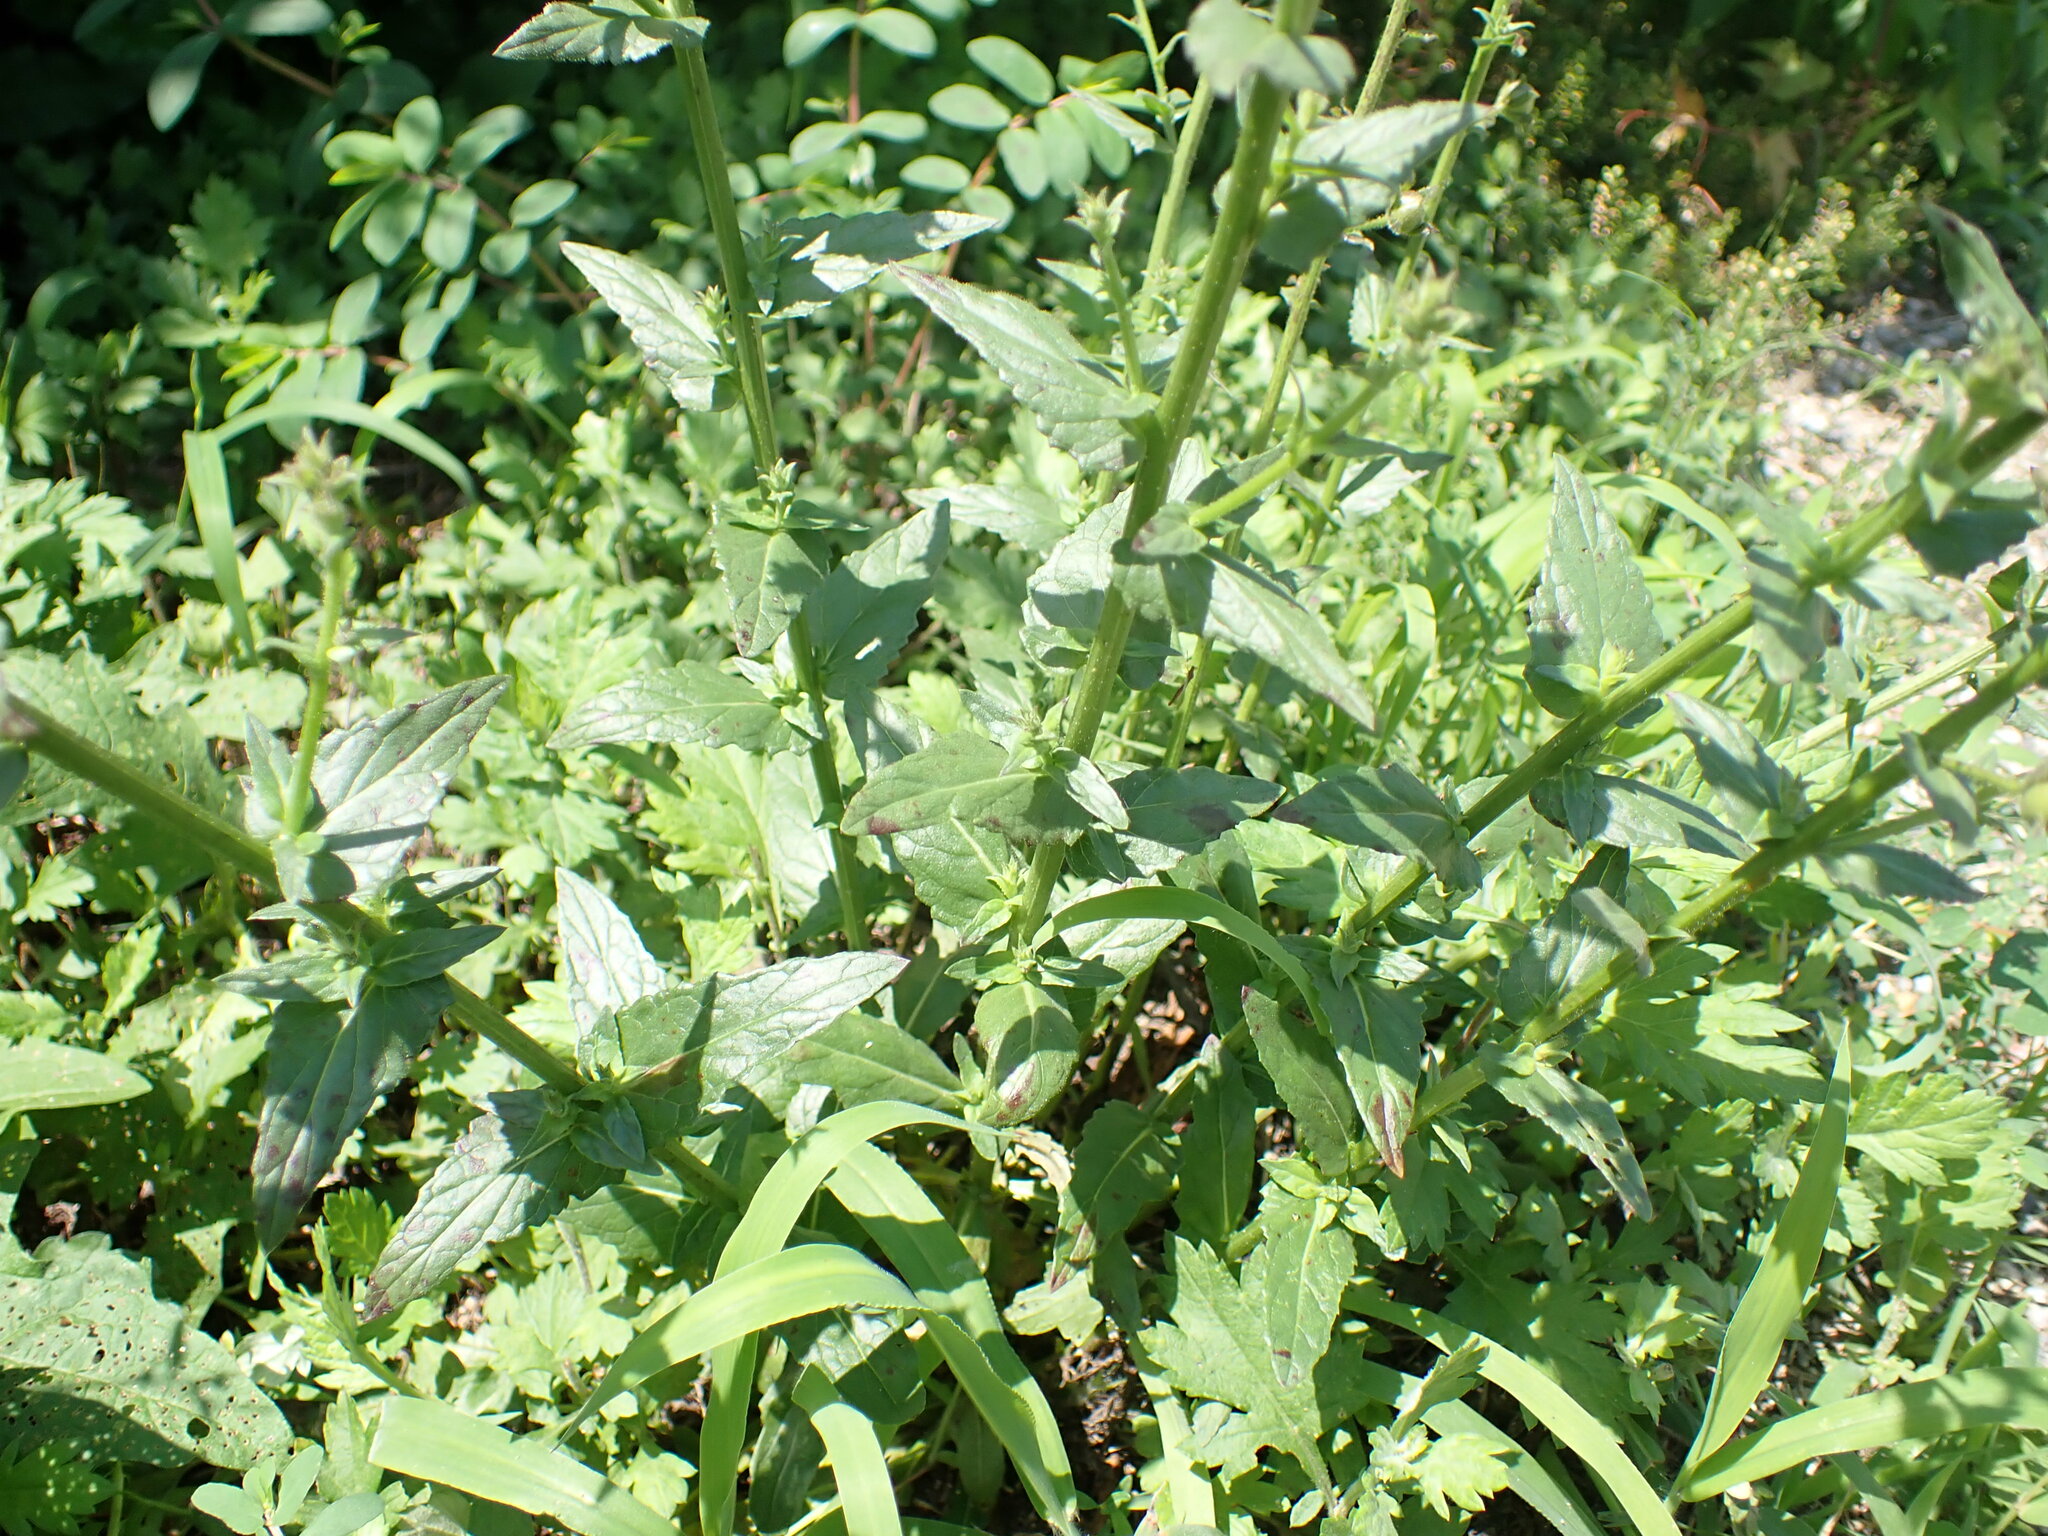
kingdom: Plantae
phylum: Tracheophyta
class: Magnoliopsida
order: Lamiales
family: Scrophulariaceae
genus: Verbascum
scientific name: Verbascum blattaria
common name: Moth mullein
